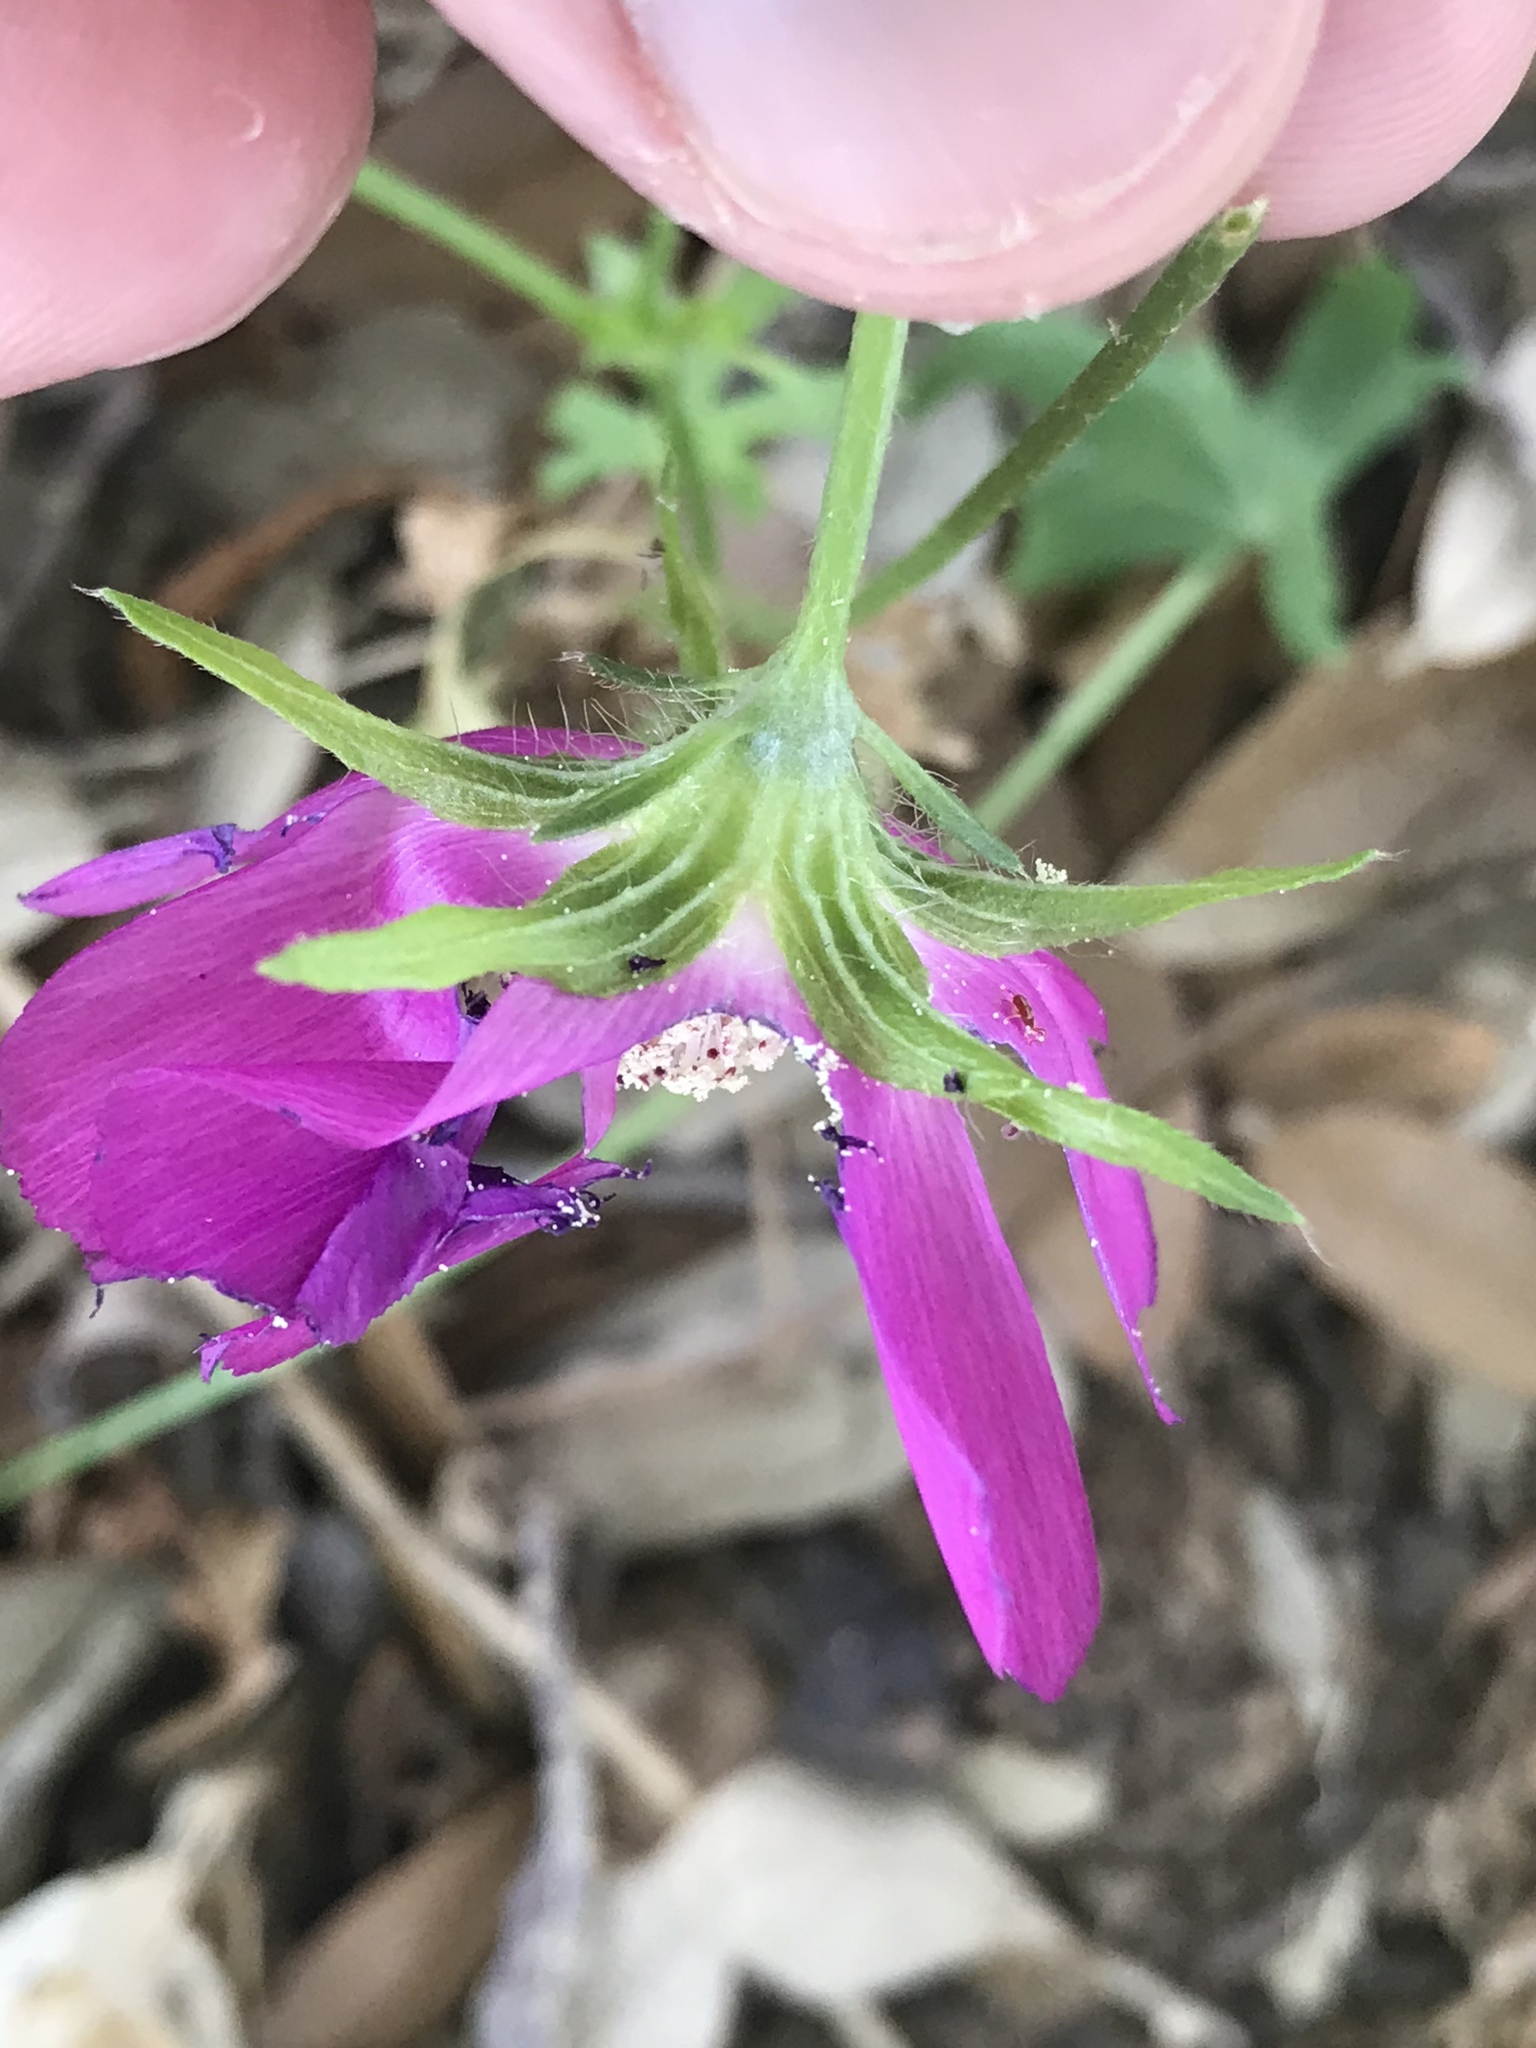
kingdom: Plantae
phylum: Tracheophyta
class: Magnoliopsida
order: Malvales
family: Malvaceae
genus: Callirhoe
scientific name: Callirhoe involucrata
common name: Purple poppy-mallow
